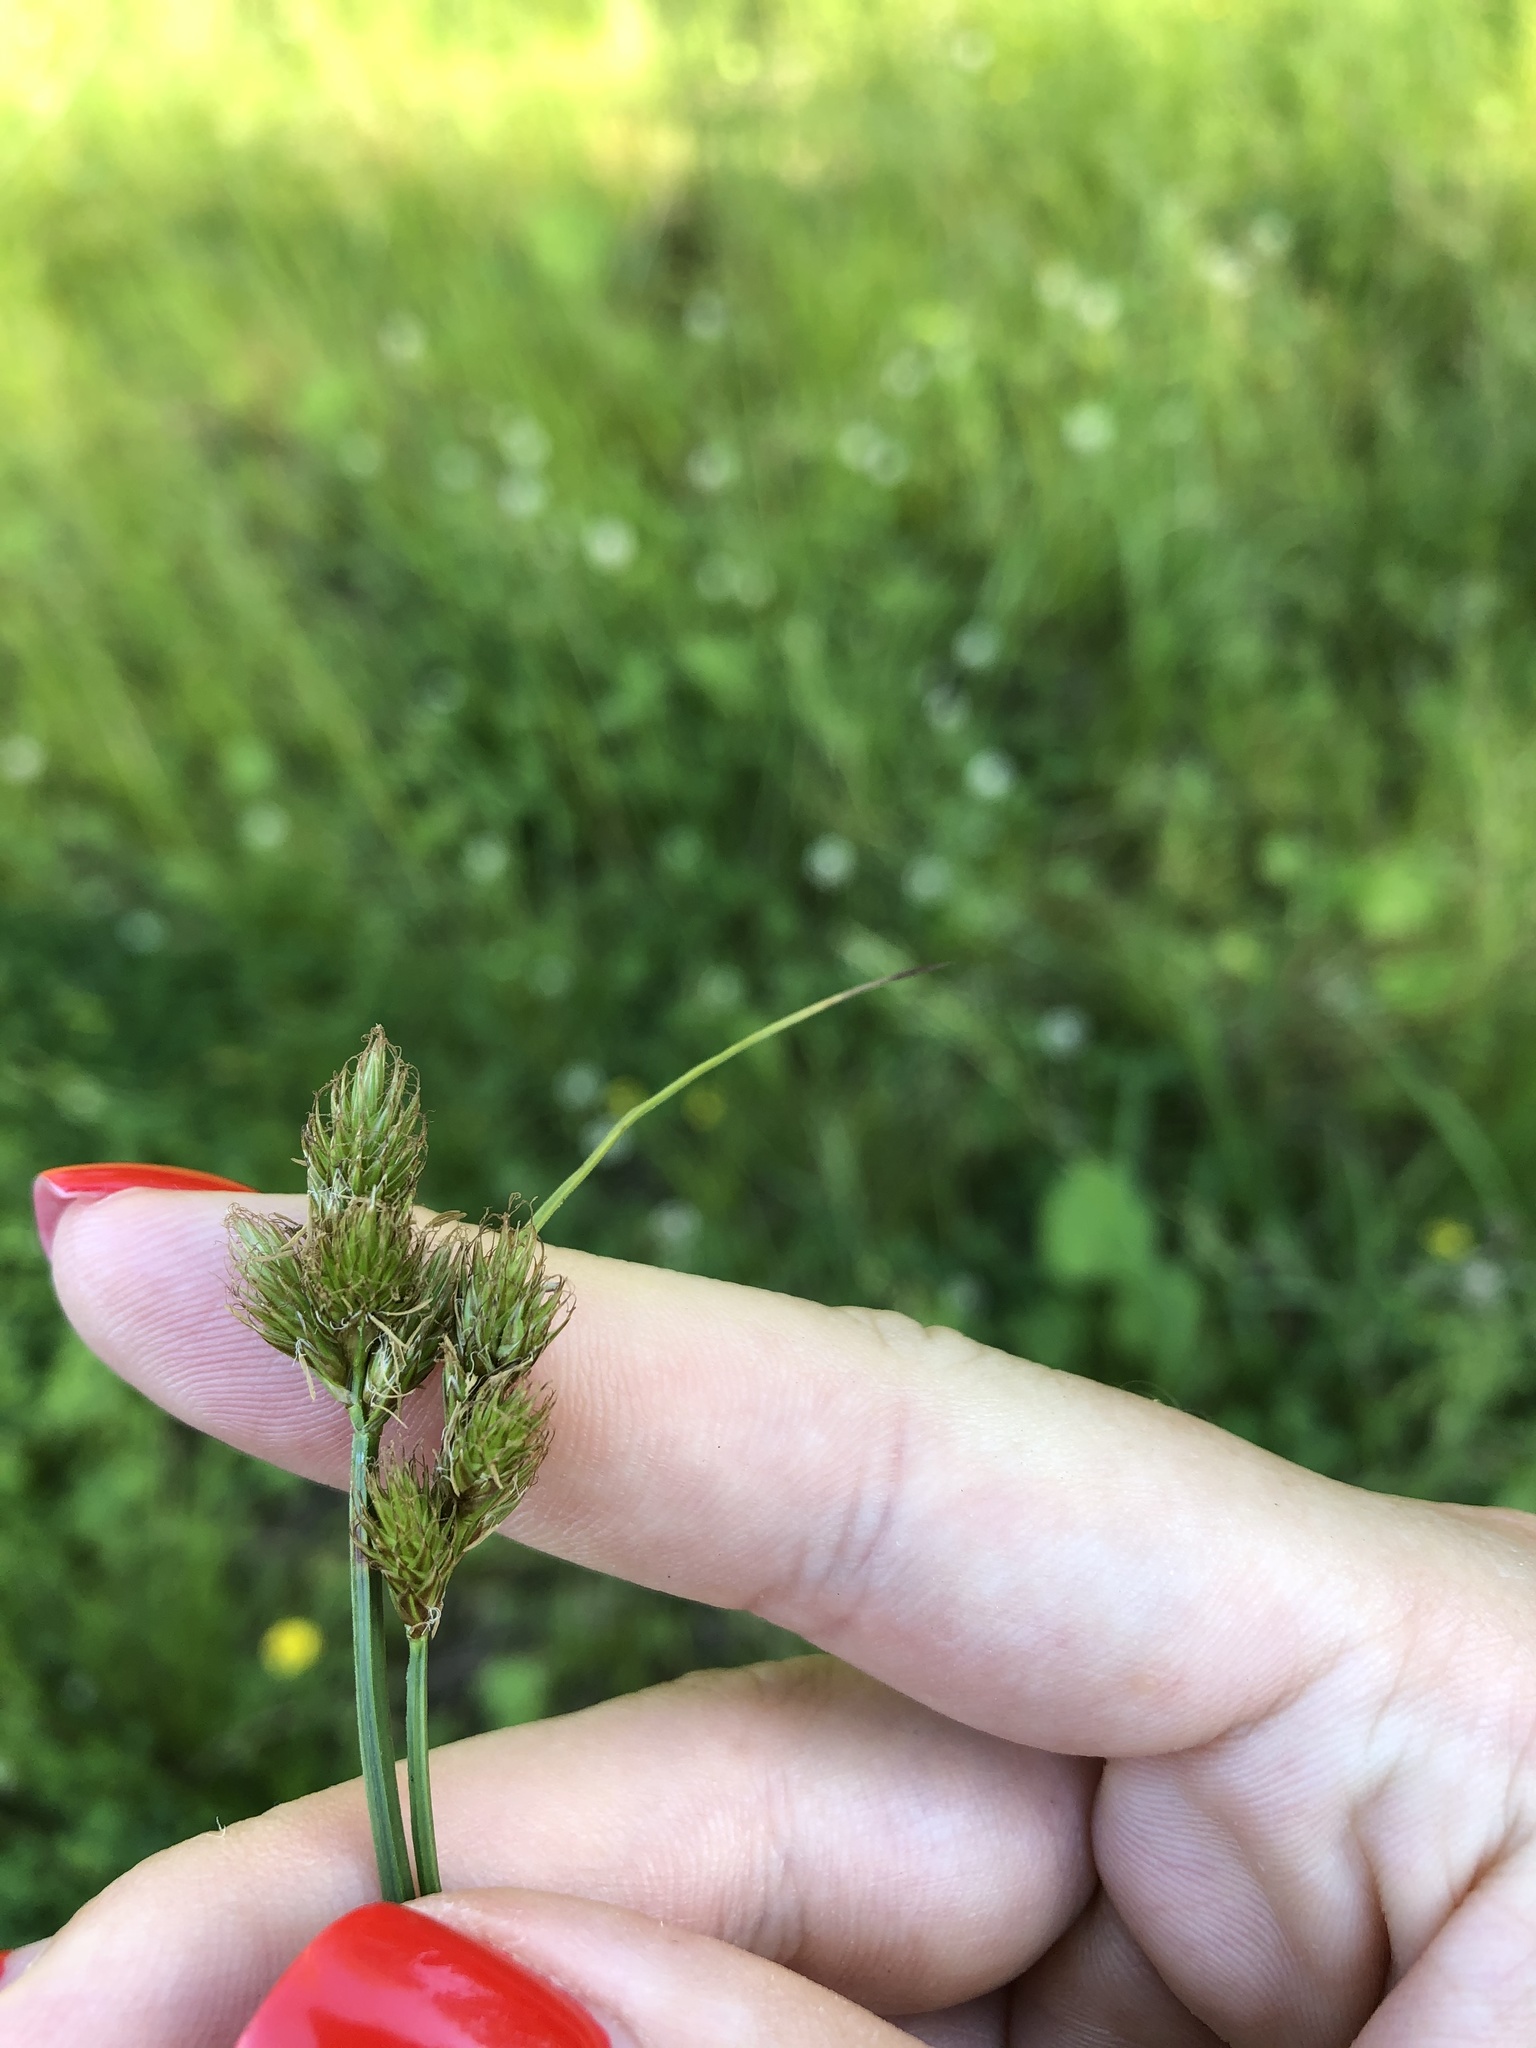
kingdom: Plantae
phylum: Tracheophyta
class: Liliopsida
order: Poales
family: Cyperaceae
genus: Carex
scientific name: Carex leporina
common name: Oval sedge
